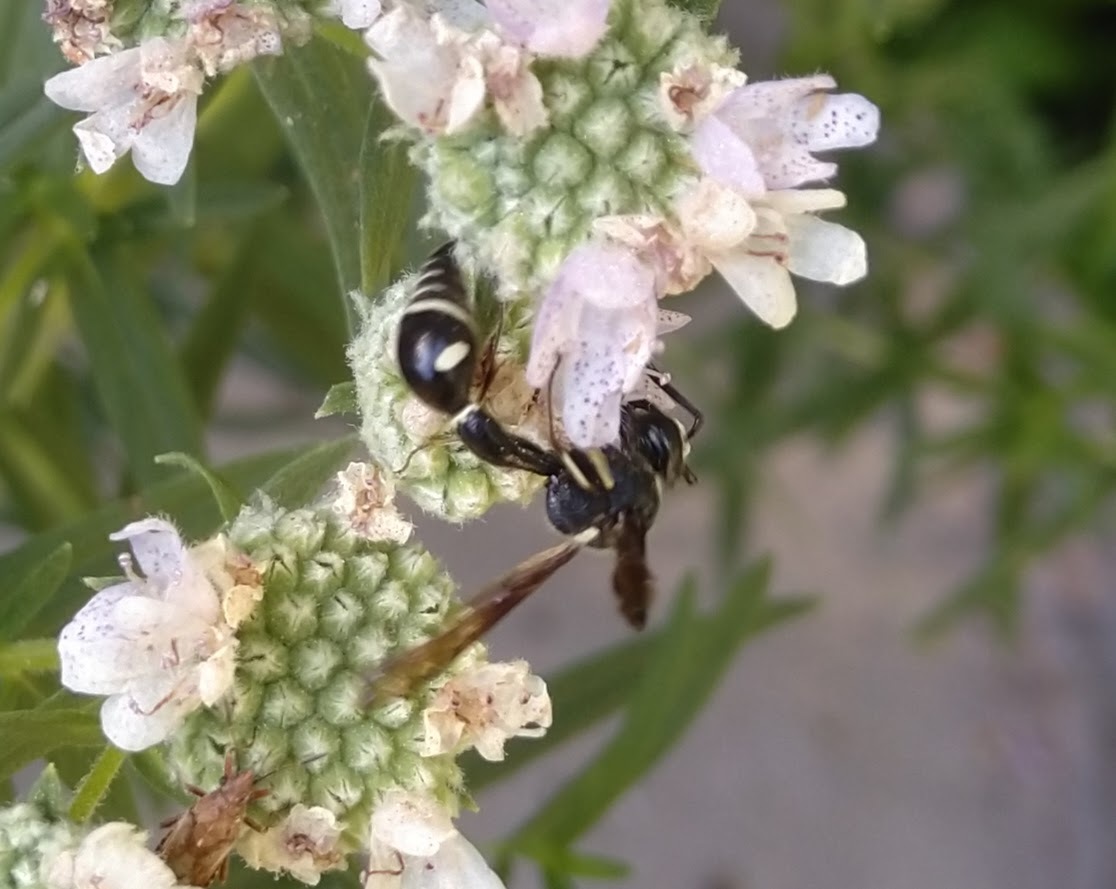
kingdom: Animalia
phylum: Arthropoda
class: Insecta
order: Hymenoptera
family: Vespidae
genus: Eumenes
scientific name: Eumenes fraternus
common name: Fraternal potter wasp
